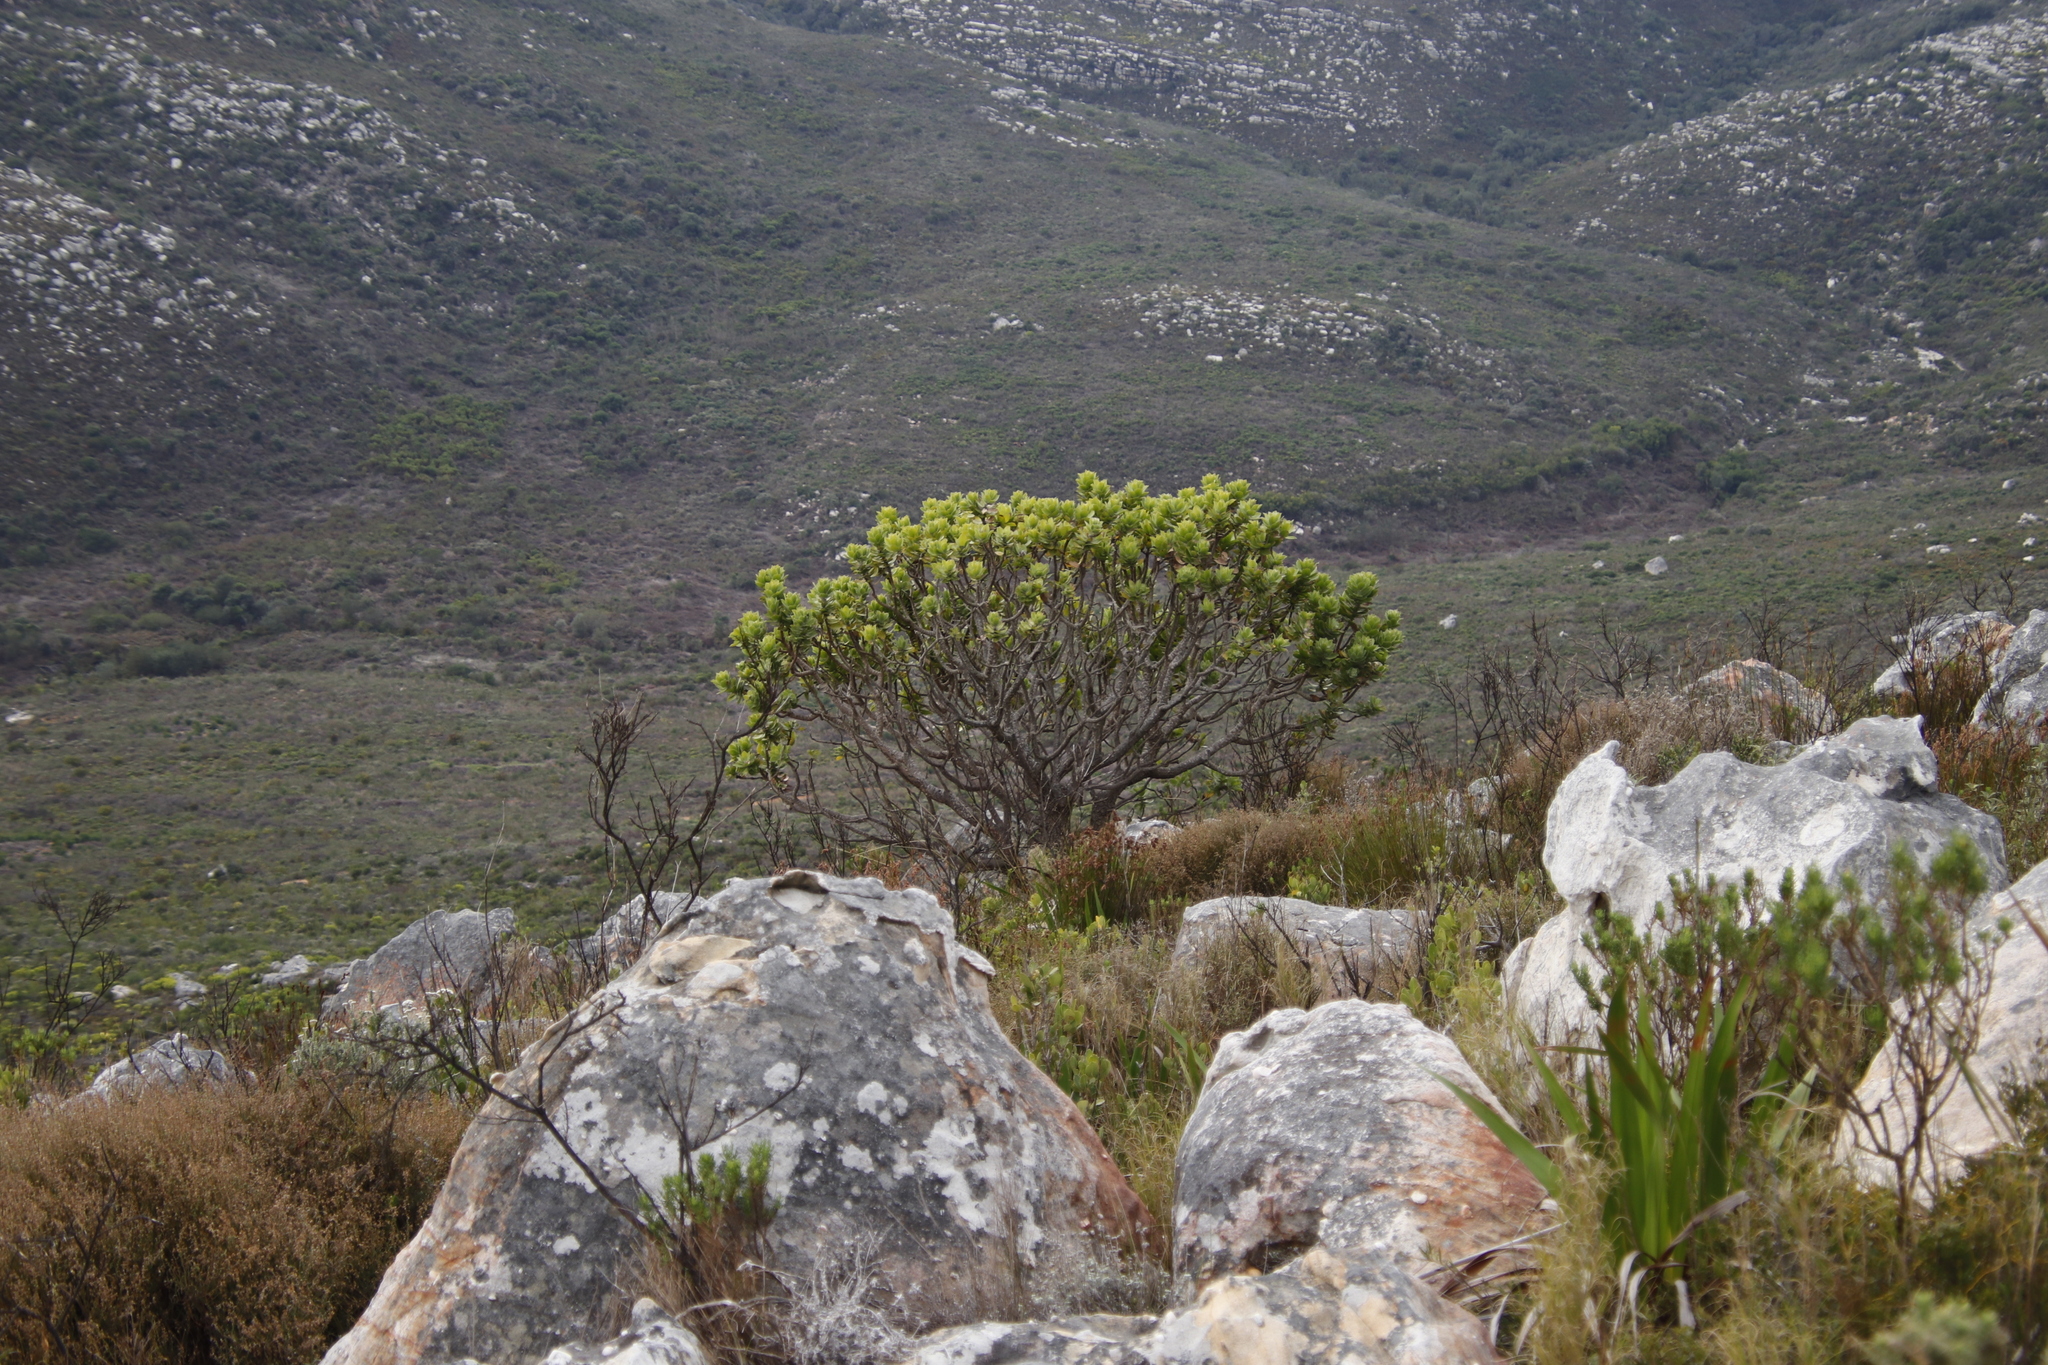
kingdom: Plantae
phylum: Tracheophyta
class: Magnoliopsida
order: Proteales
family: Proteaceae
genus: Leucospermum
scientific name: Leucospermum conocarpodendron
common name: Tree pincushion
